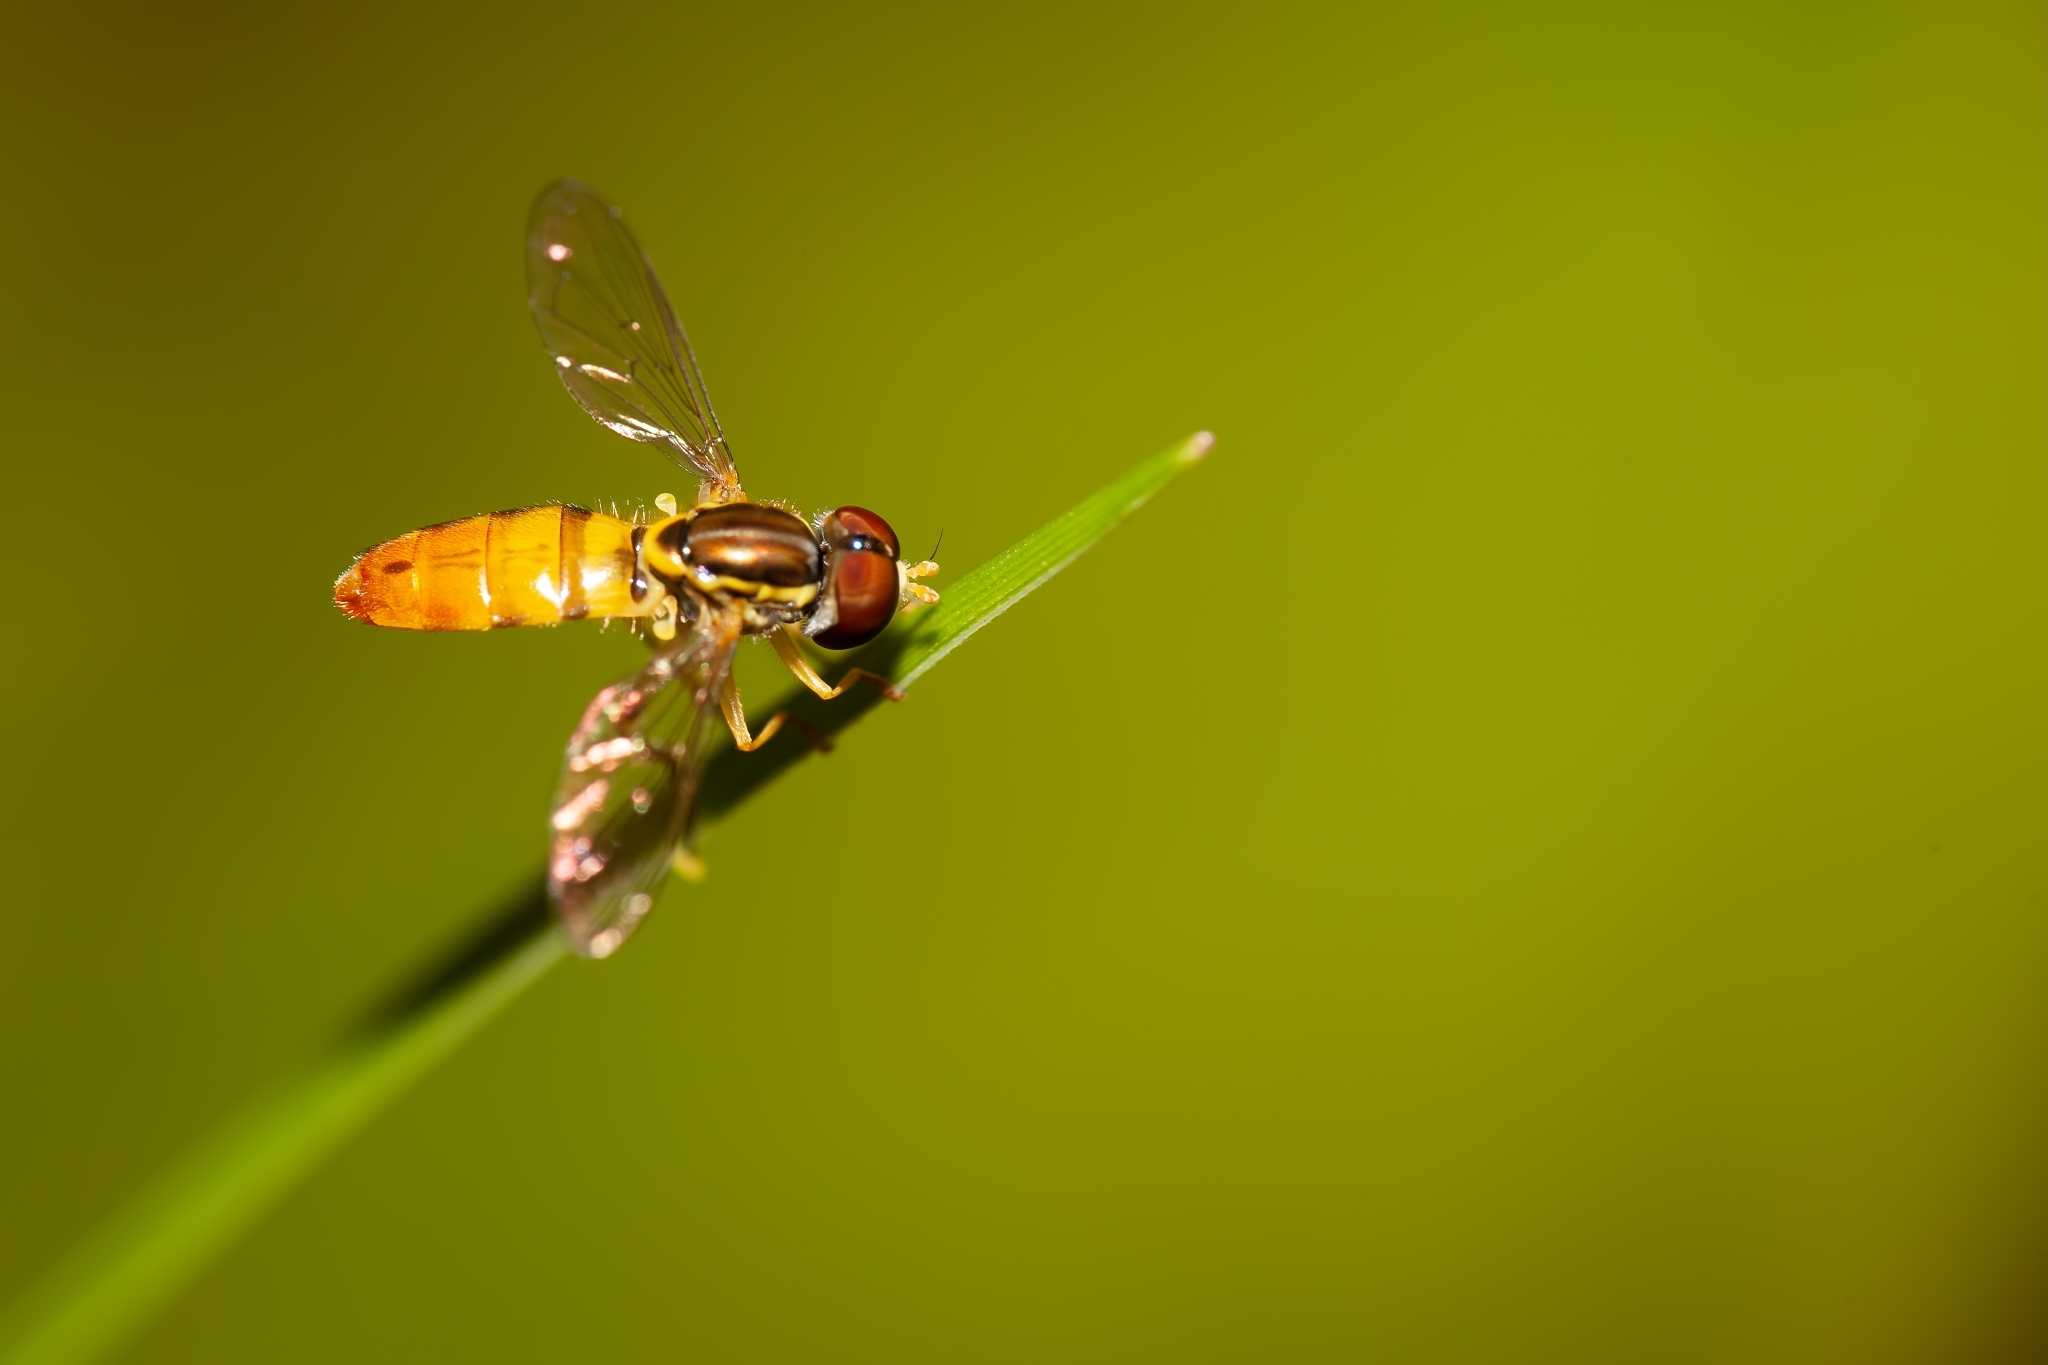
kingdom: Animalia
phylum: Arthropoda
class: Insecta
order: Diptera
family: Syrphidae
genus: Toxomerus
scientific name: Toxomerus floralis
